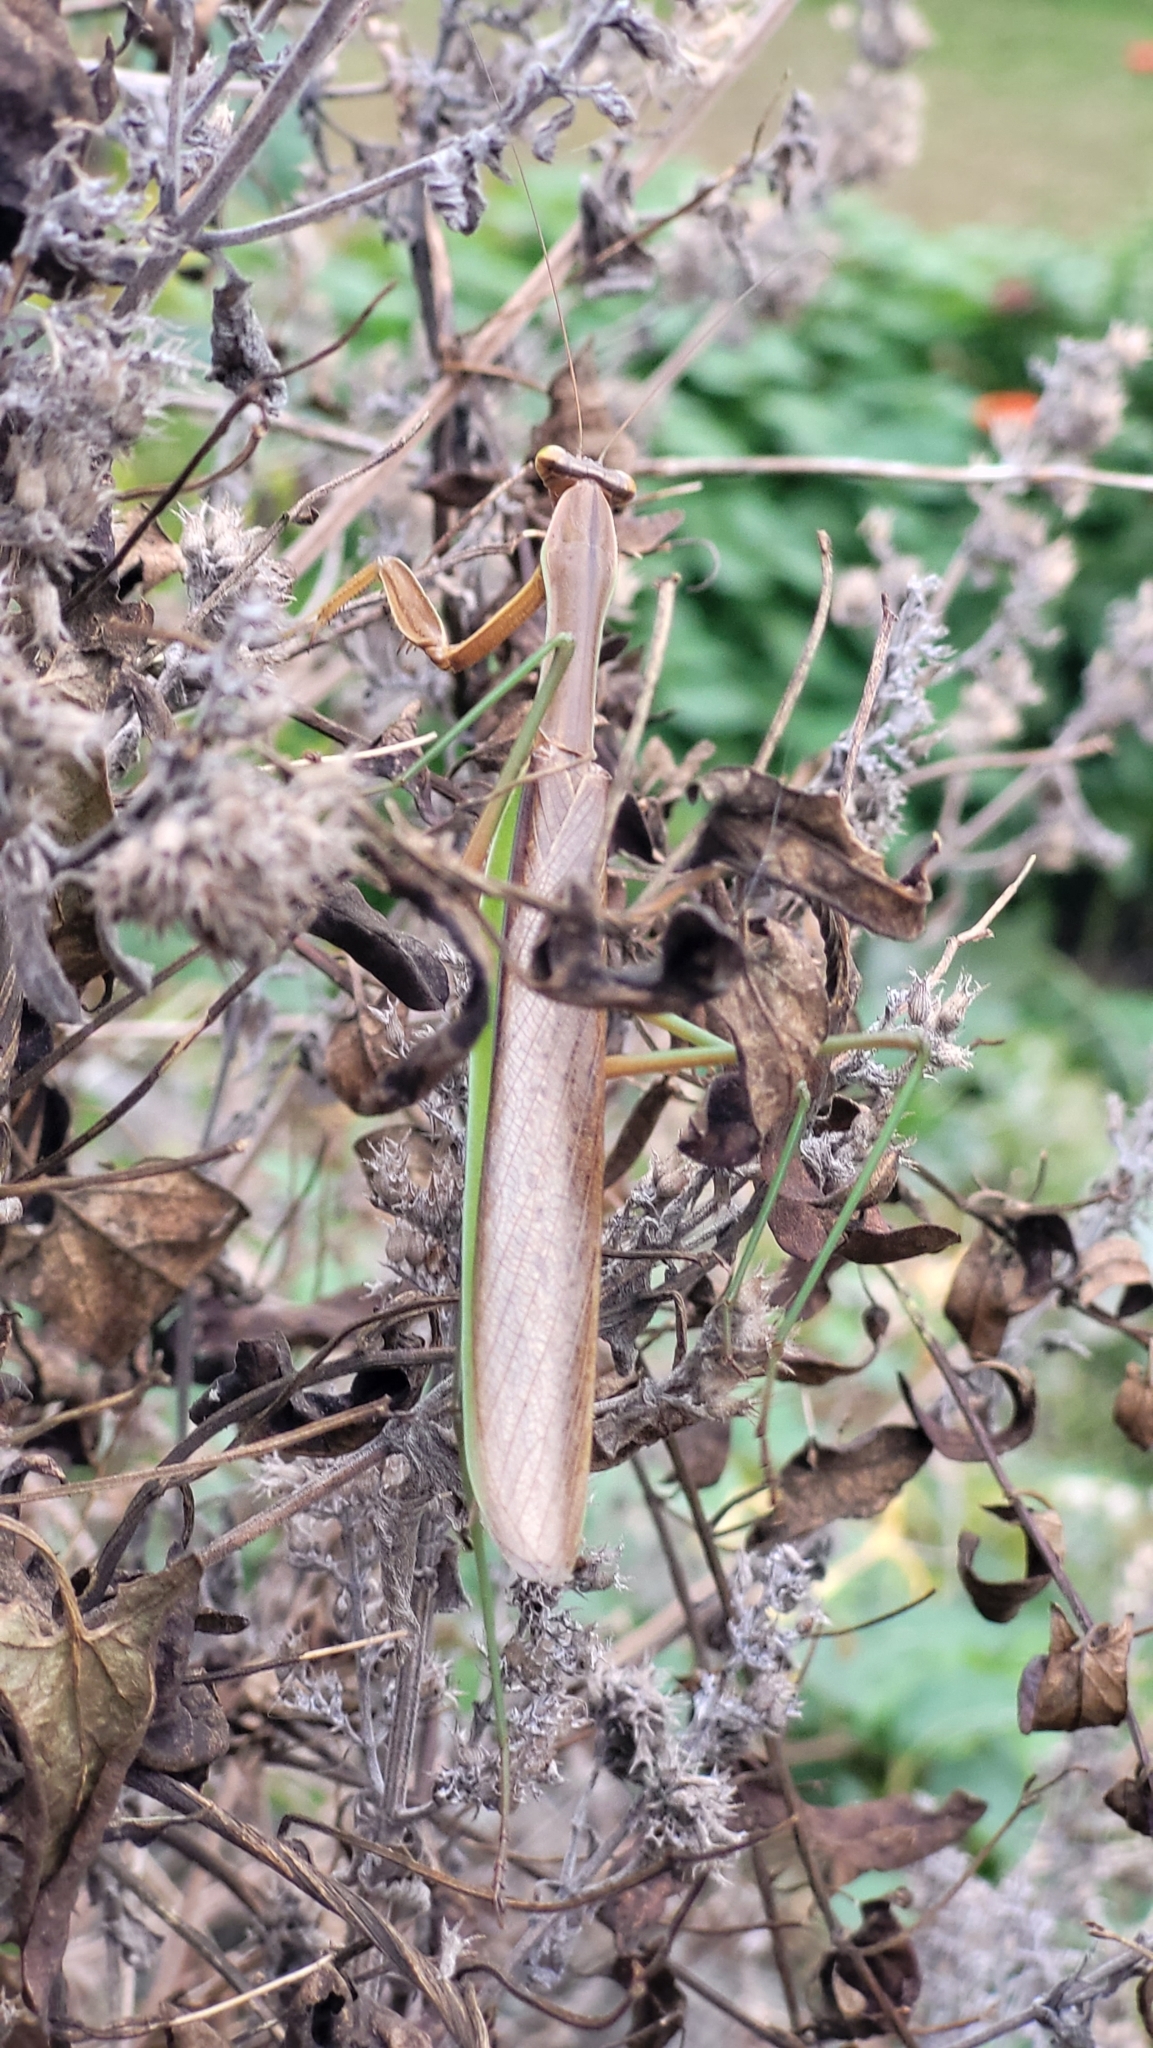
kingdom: Animalia
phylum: Arthropoda
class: Insecta
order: Mantodea
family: Mantidae
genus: Tenodera
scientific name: Tenodera sinensis
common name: Chinese mantis
